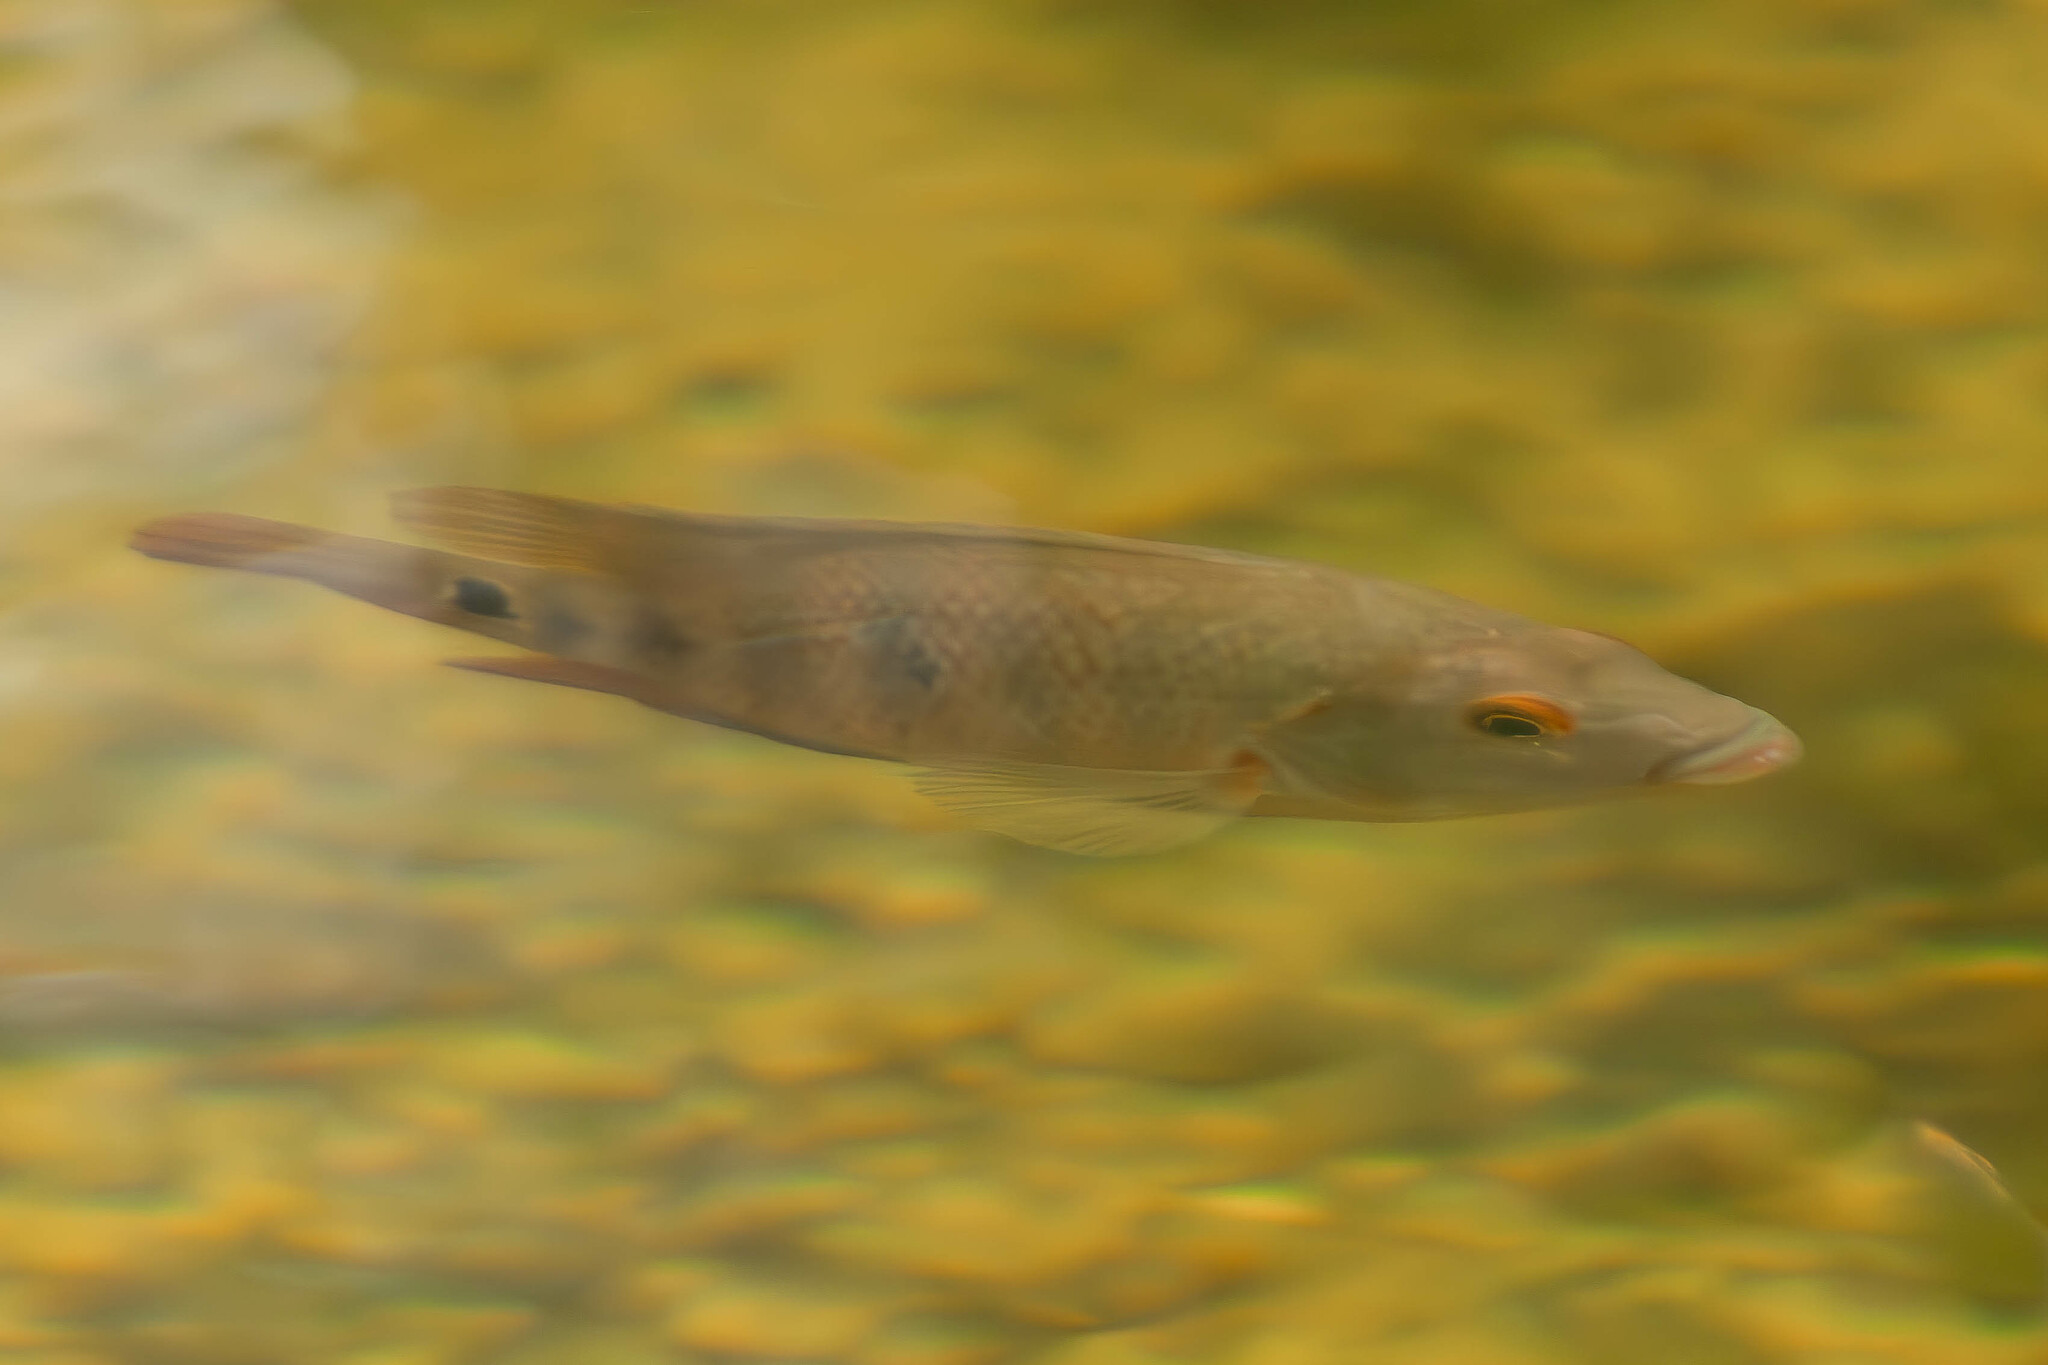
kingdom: Animalia
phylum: Chordata
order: Perciformes
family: Cichlidae
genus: Mayaheros
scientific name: Mayaheros urophthalmus
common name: Mayan cichlid
